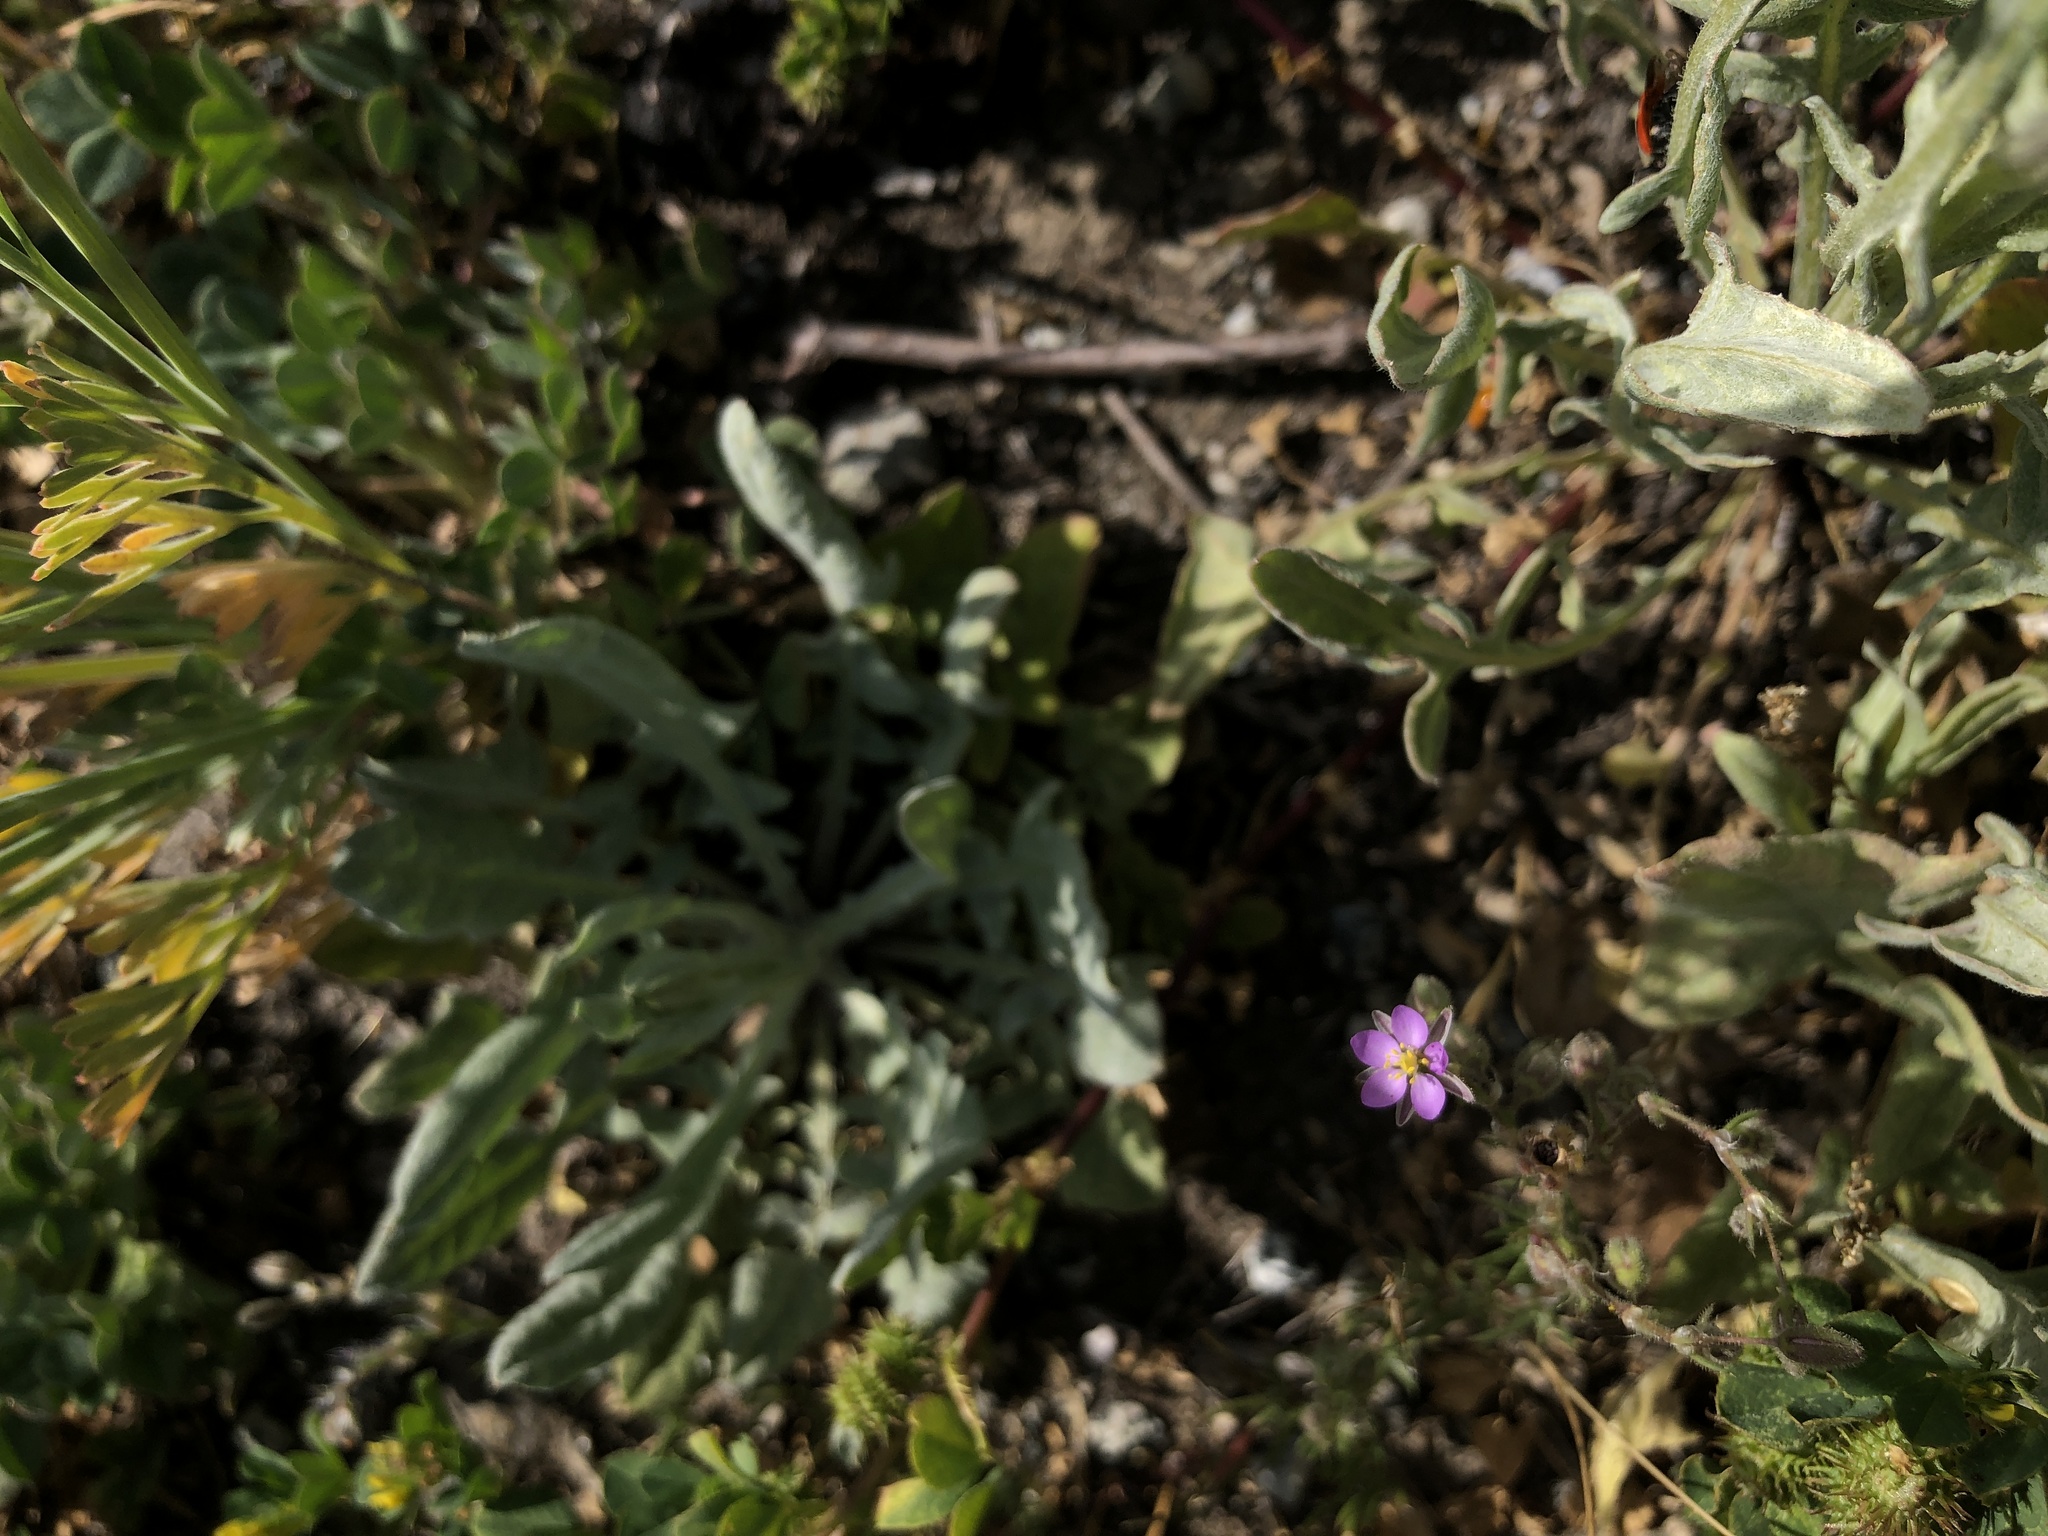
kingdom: Plantae
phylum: Tracheophyta
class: Magnoliopsida
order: Caryophyllales
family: Caryophyllaceae
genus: Spergularia
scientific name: Spergularia rubra
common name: Red sand-spurrey
